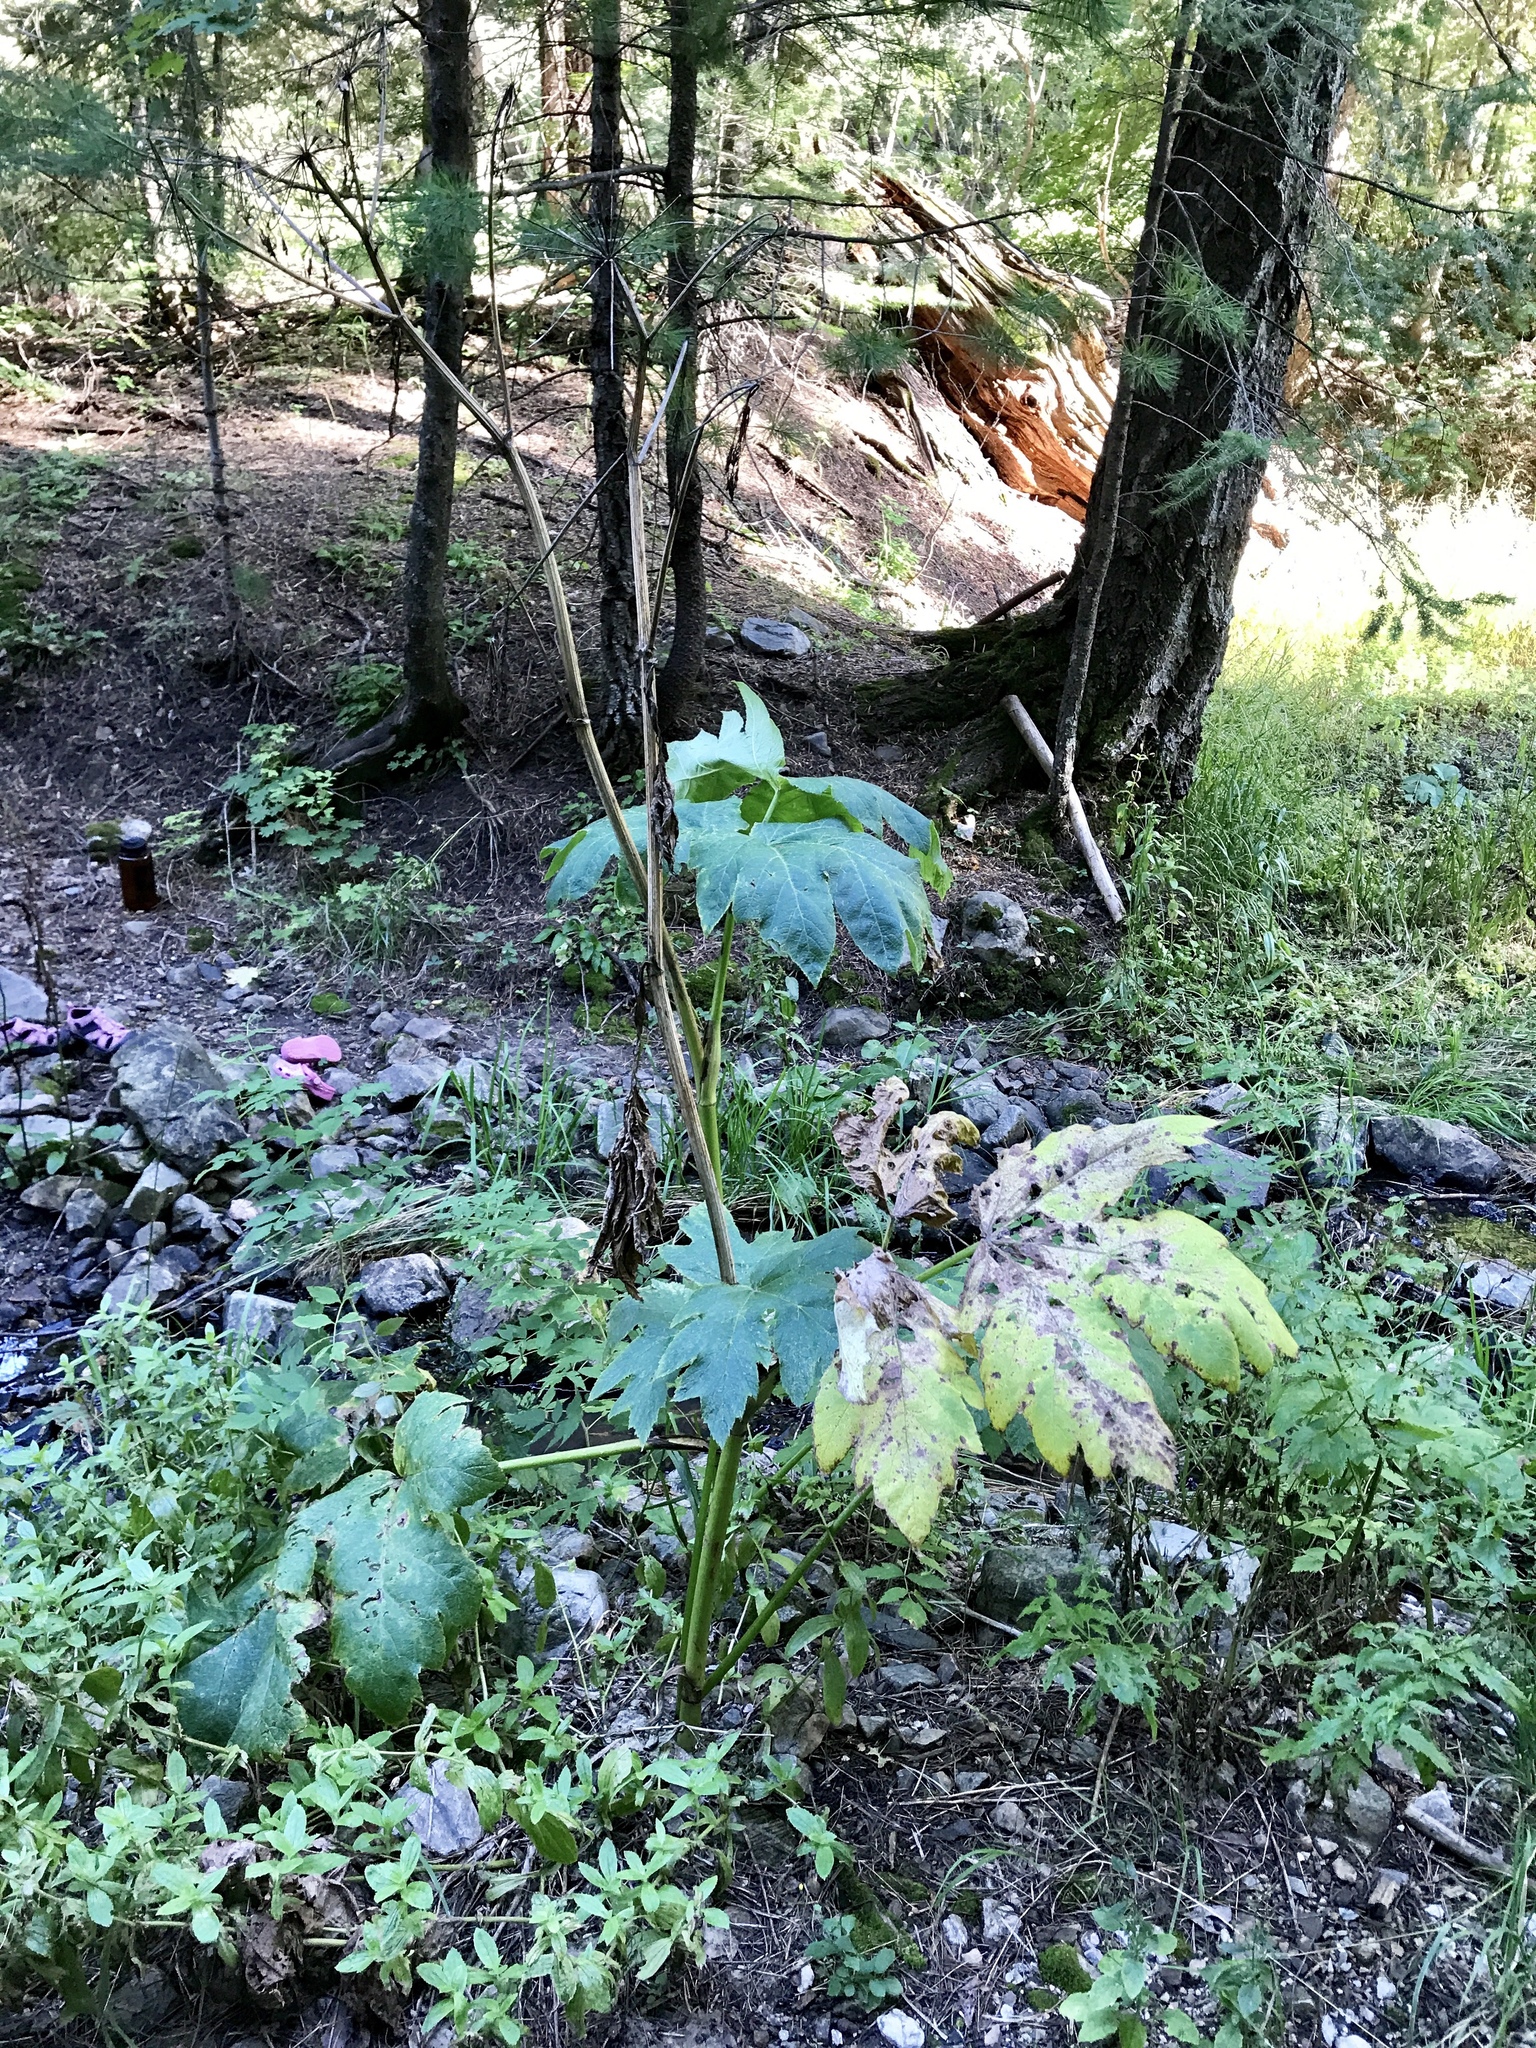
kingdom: Plantae
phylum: Tracheophyta
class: Magnoliopsida
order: Apiales
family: Apiaceae
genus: Heracleum
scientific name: Heracleum maximum
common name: American cow parsnip
